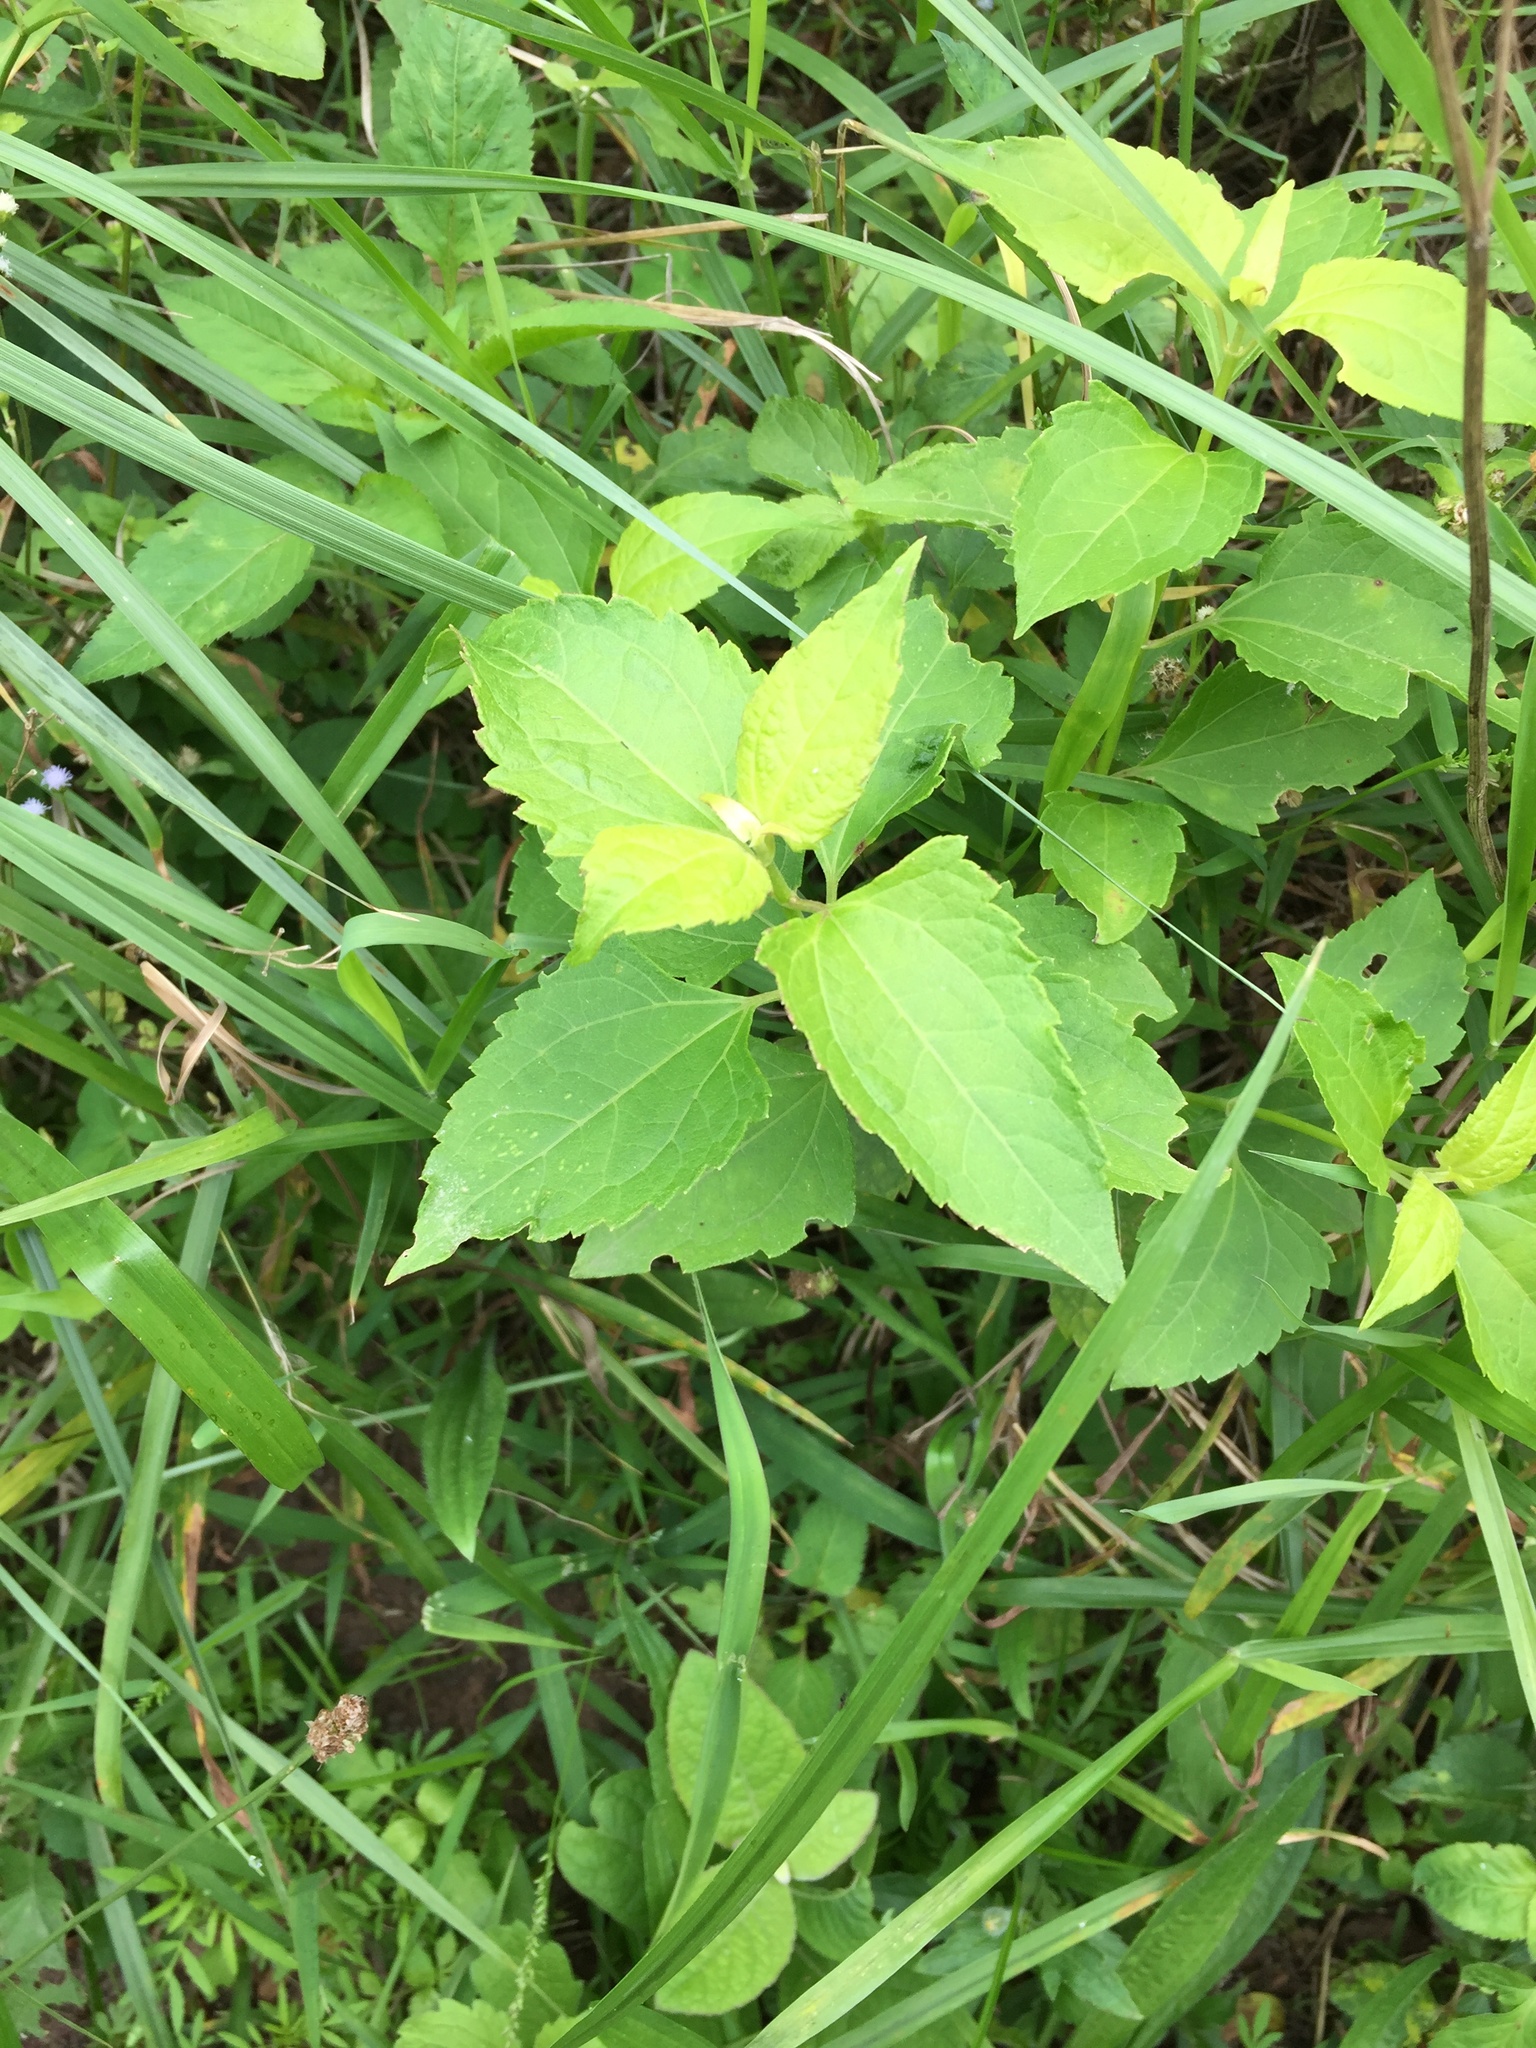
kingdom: Plantae
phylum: Tracheophyta
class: Magnoliopsida
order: Asterales
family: Asteraceae
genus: Chromolaena
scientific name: Chromolaena odorata
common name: Siamweed
